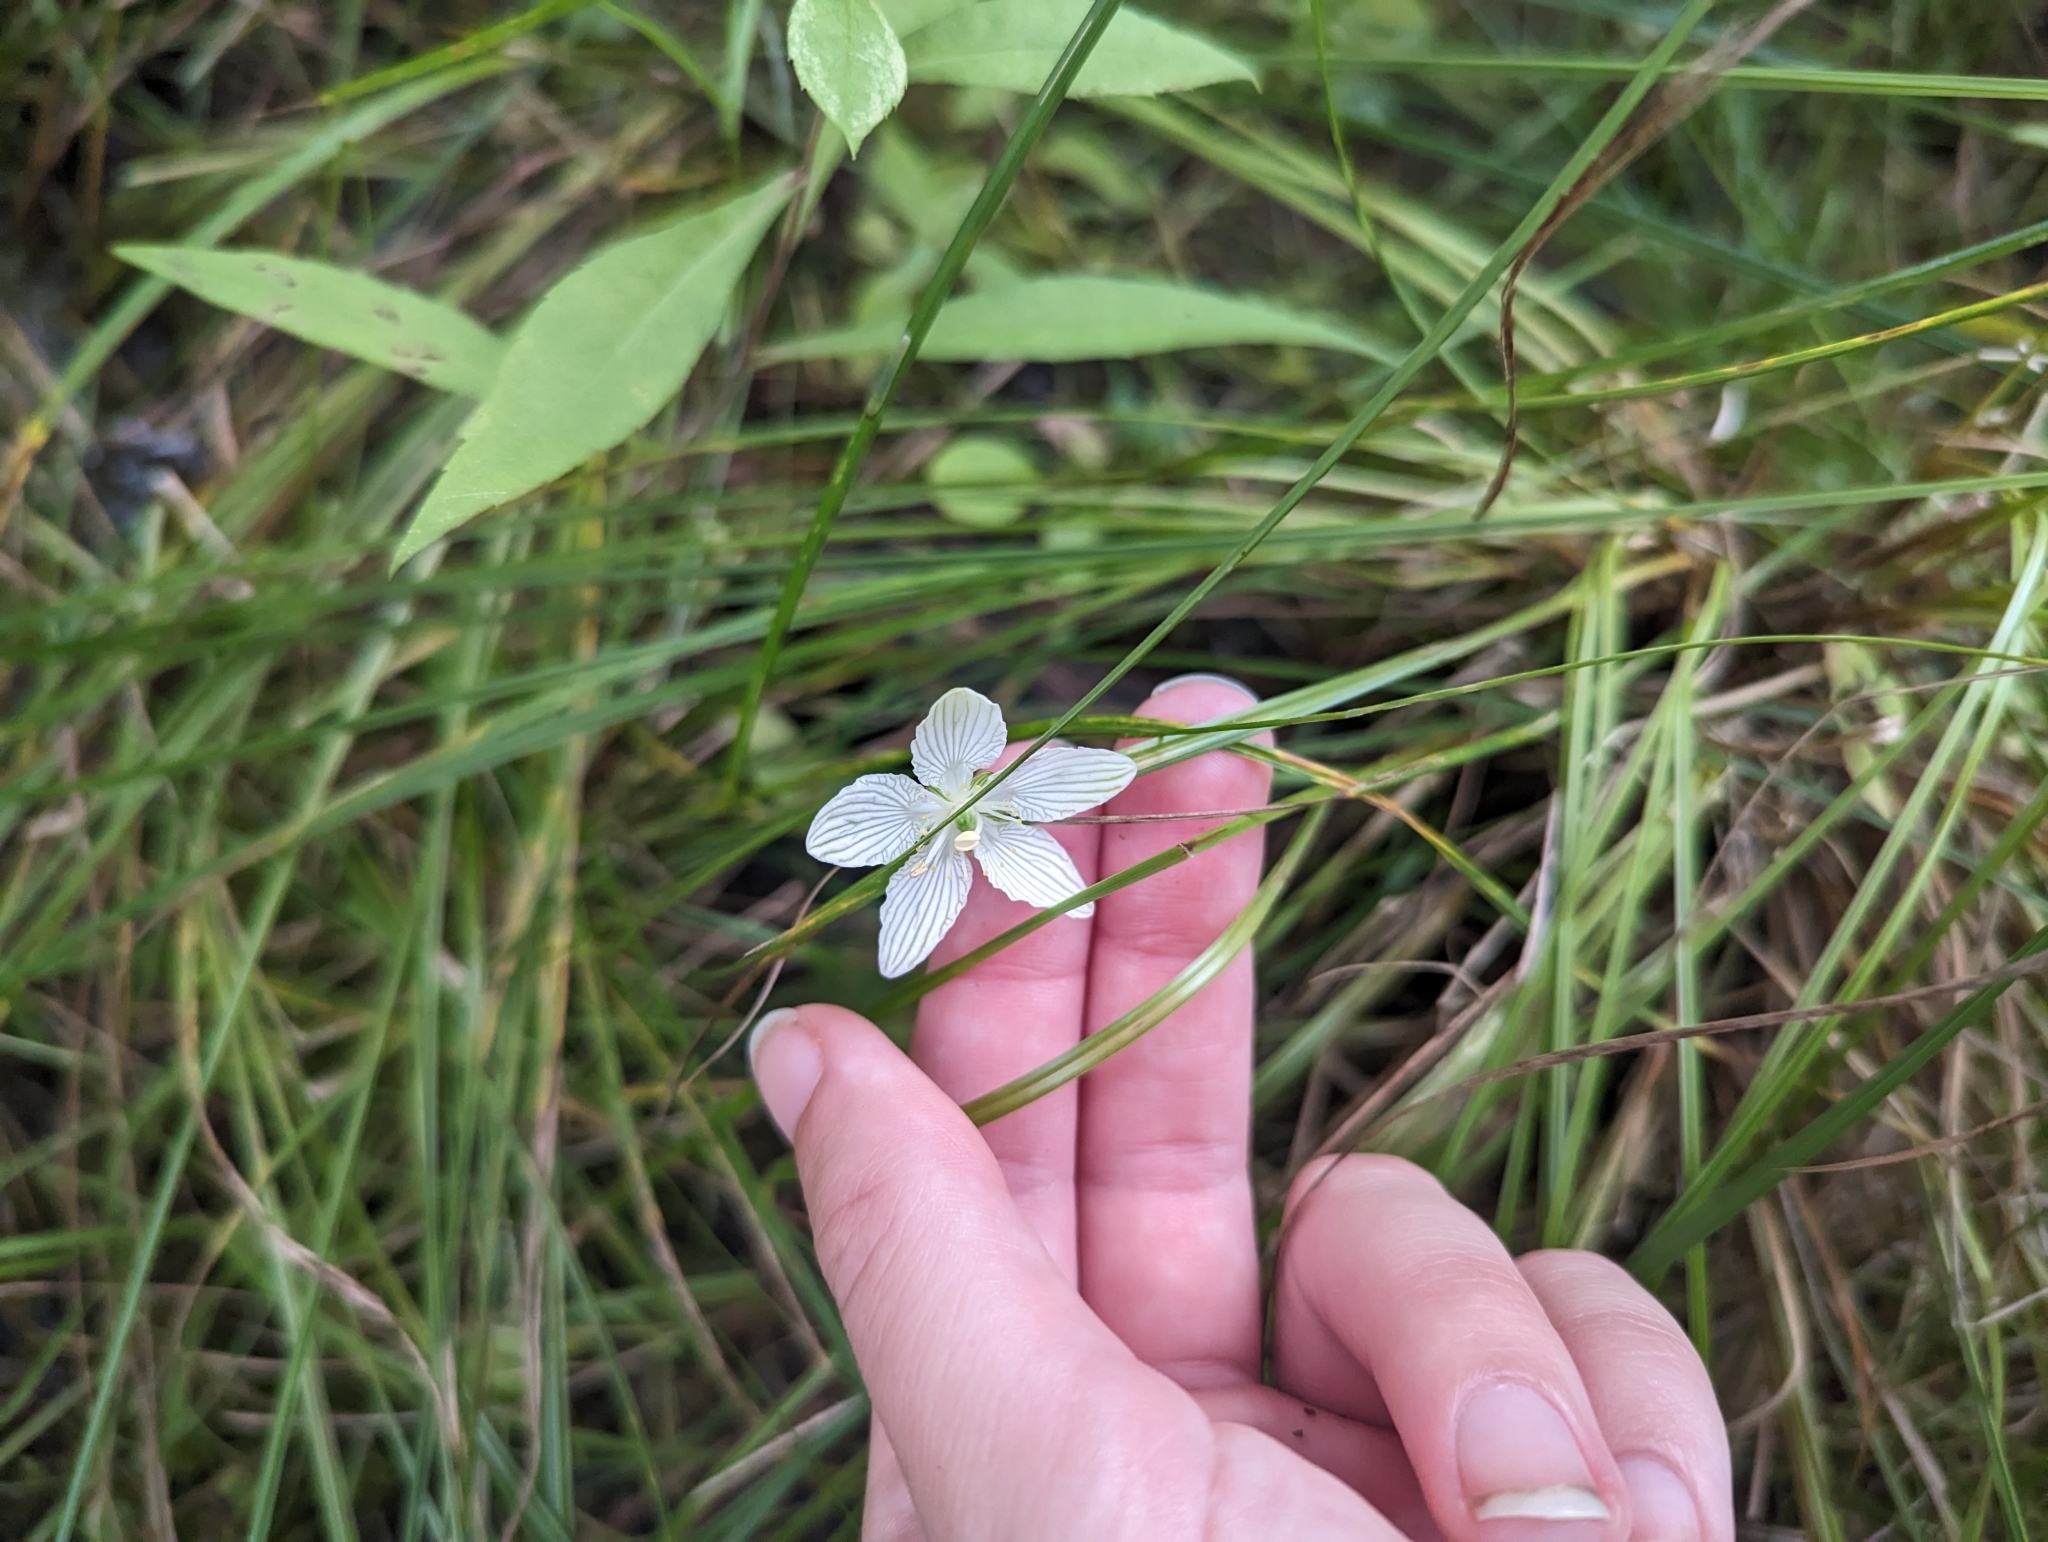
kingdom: Plantae
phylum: Tracheophyta
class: Magnoliopsida
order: Celastrales
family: Parnassiaceae
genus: Parnassia
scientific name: Parnassia glauca
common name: American grass-of-parnassus
